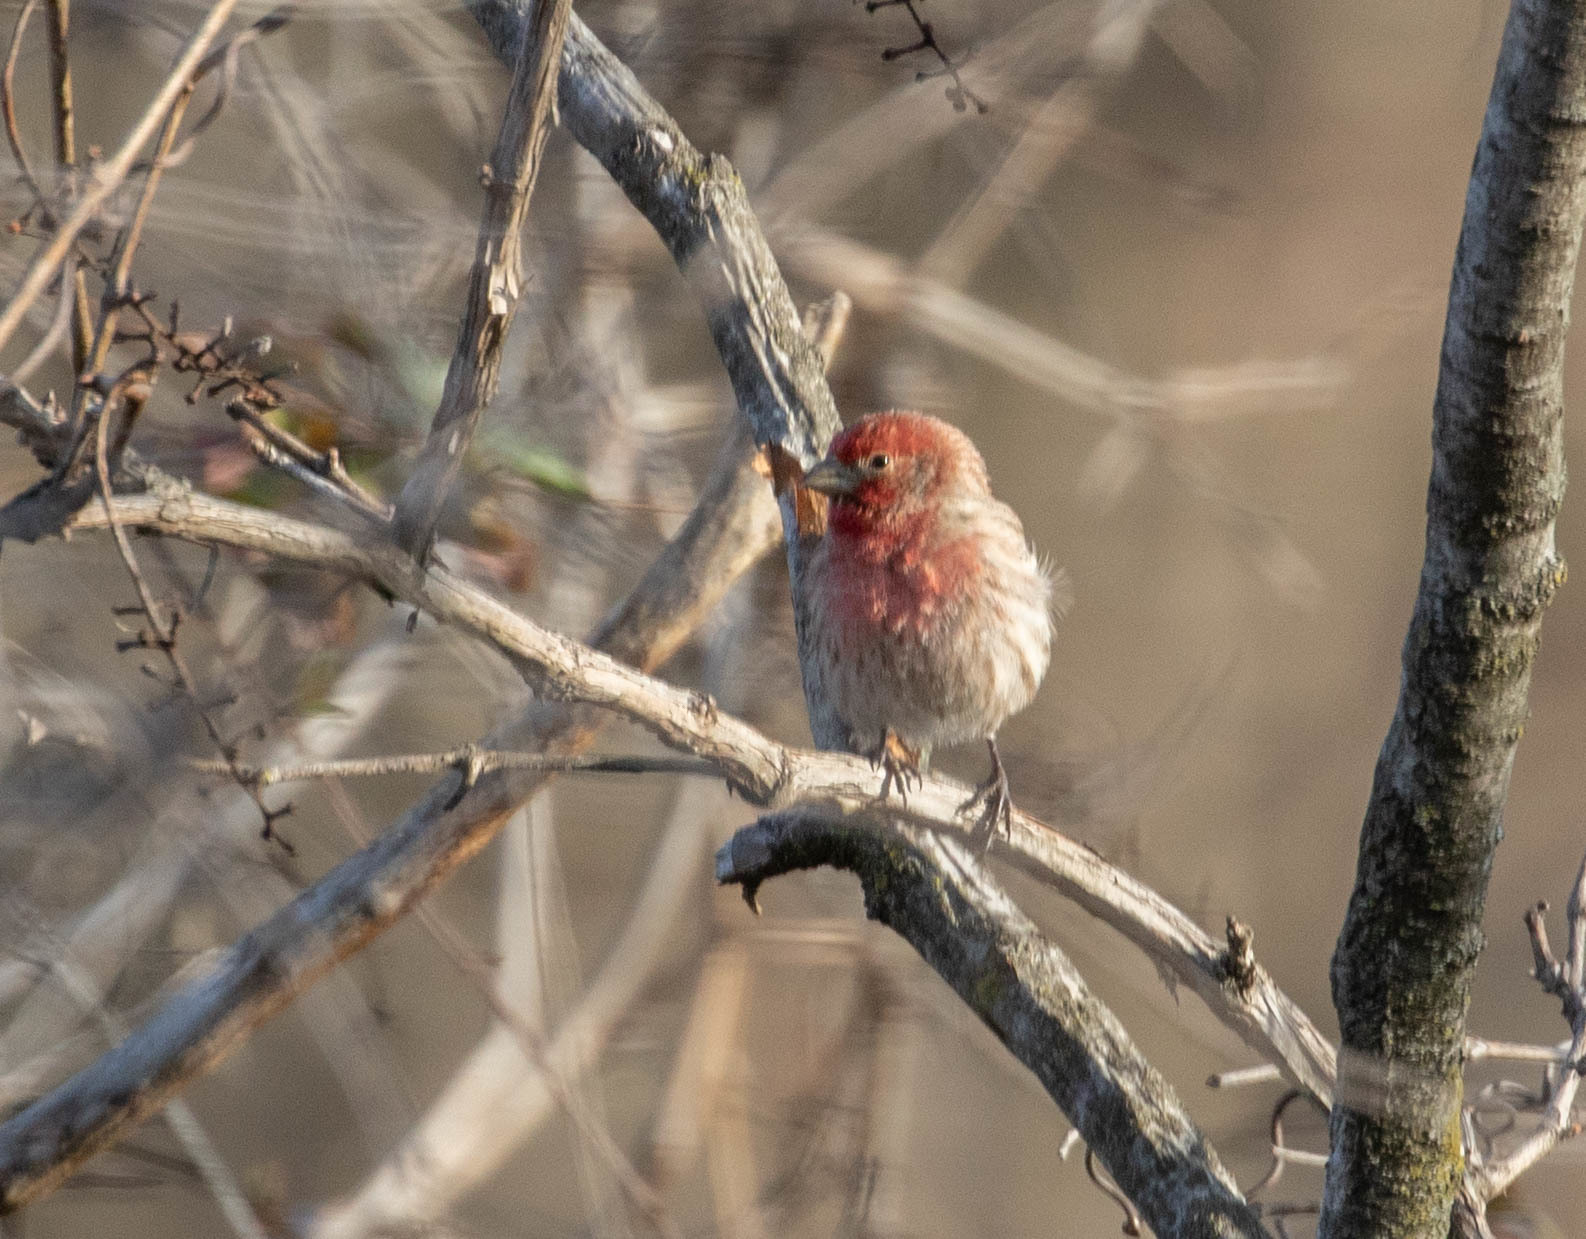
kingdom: Animalia
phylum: Chordata
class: Aves
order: Passeriformes
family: Fringillidae
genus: Haemorhous
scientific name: Haemorhous mexicanus
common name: House finch
